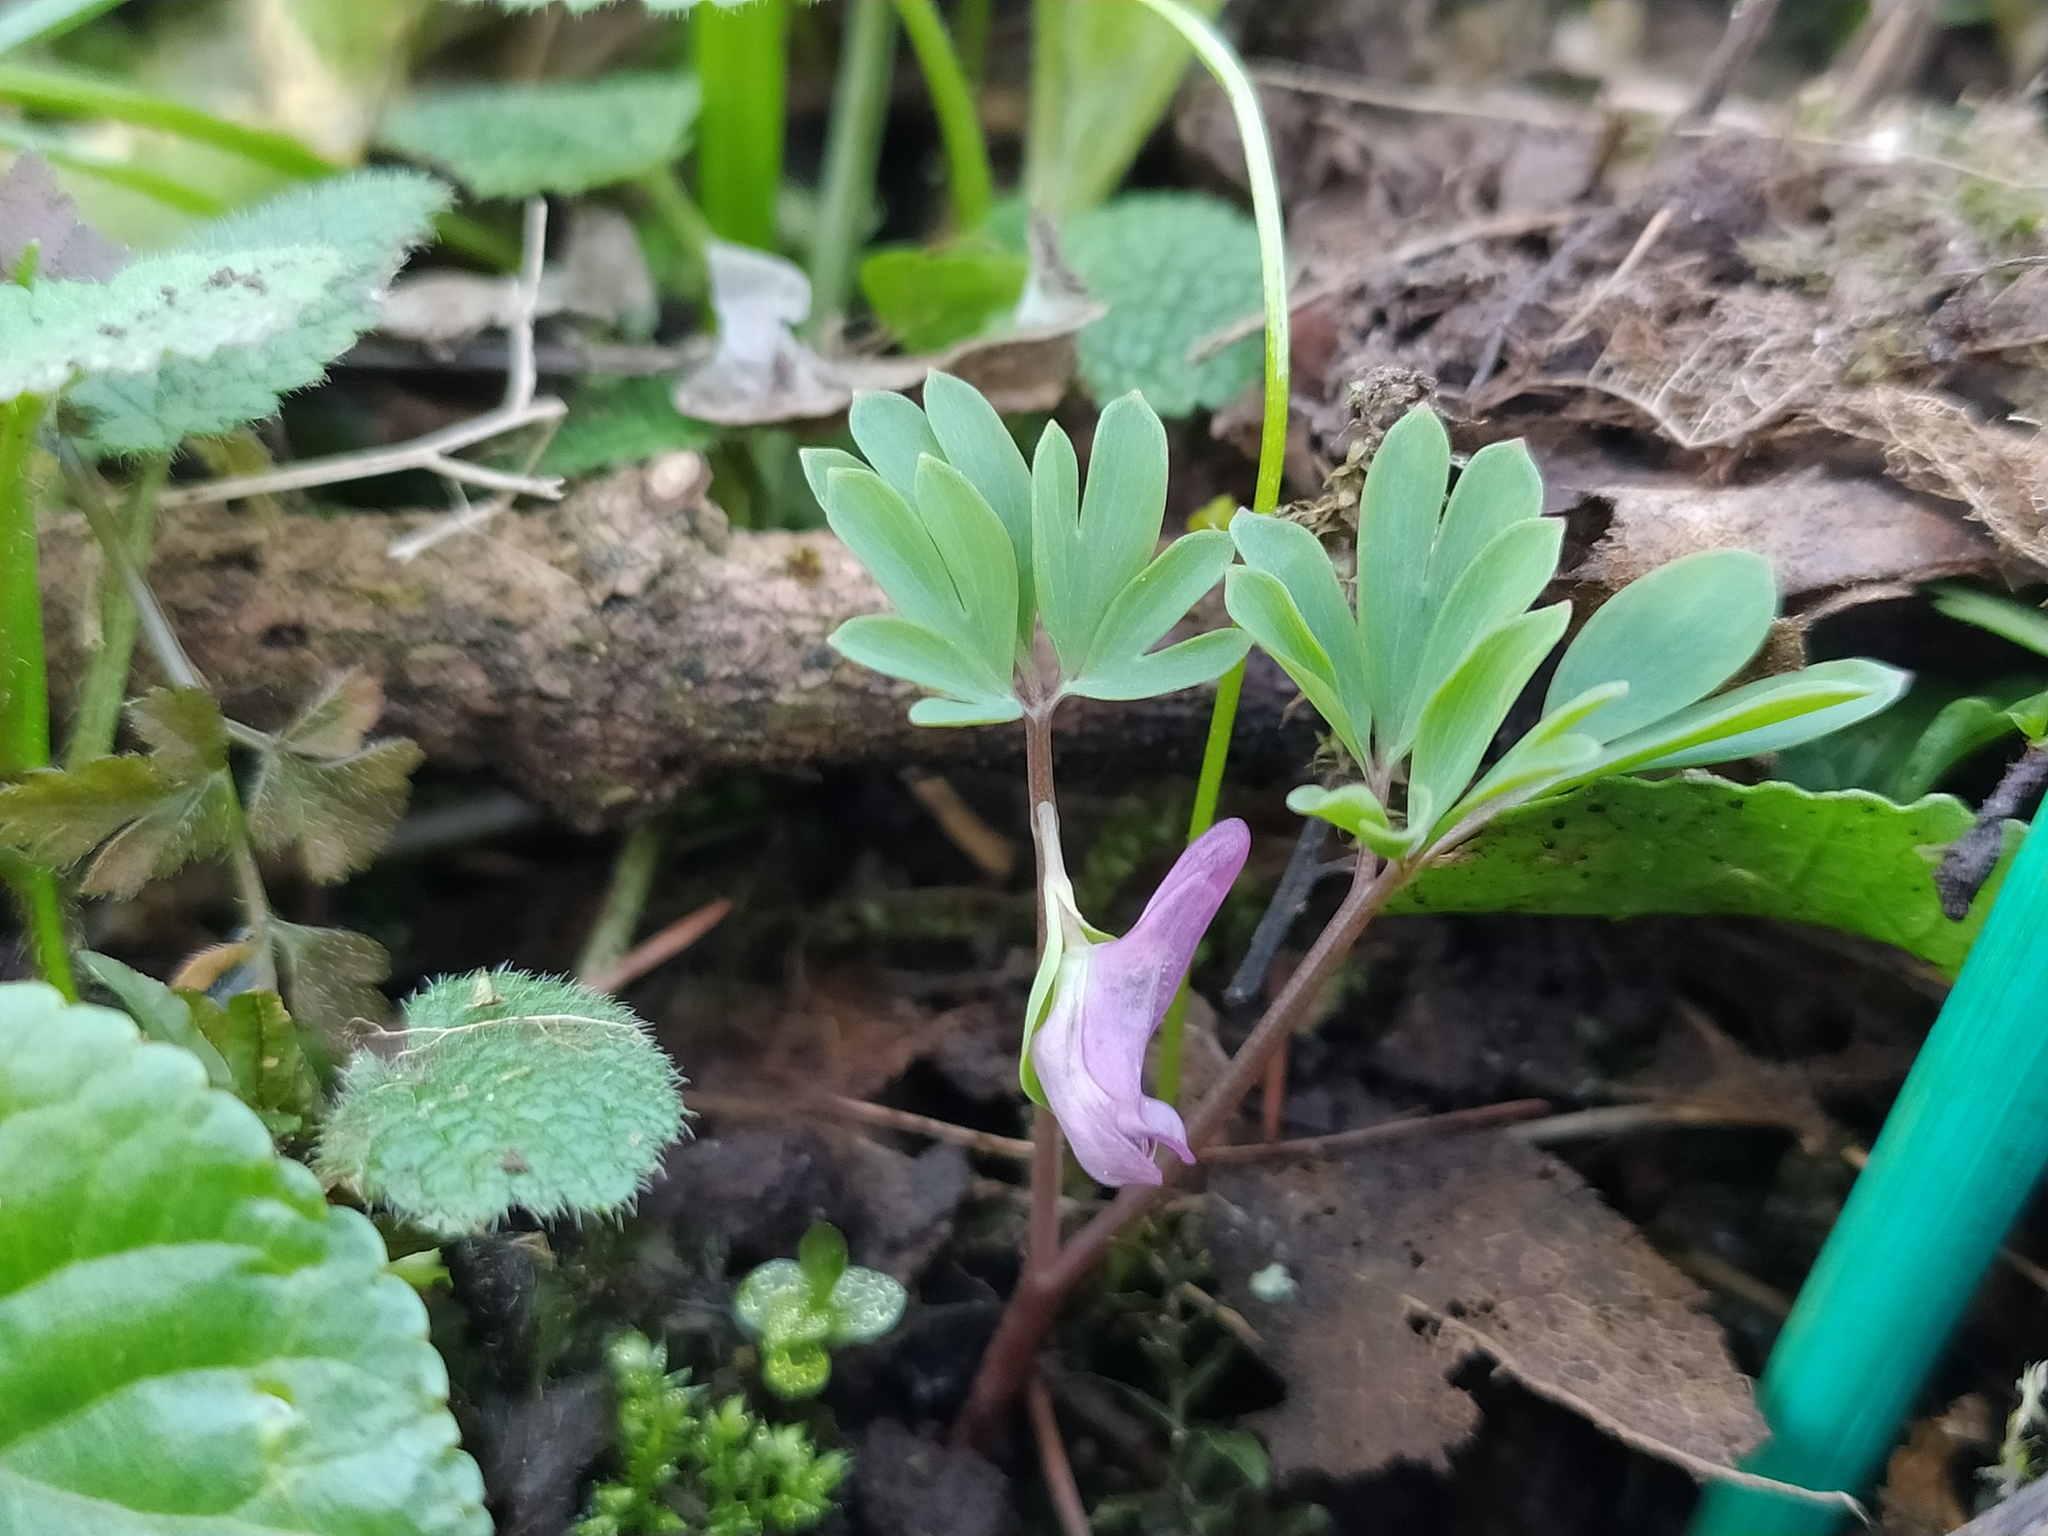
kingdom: Plantae
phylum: Tracheophyta
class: Magnoliopsida
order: Ranunculales
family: Papaveraceae
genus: Corydalis
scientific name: Corydalis intermedia
